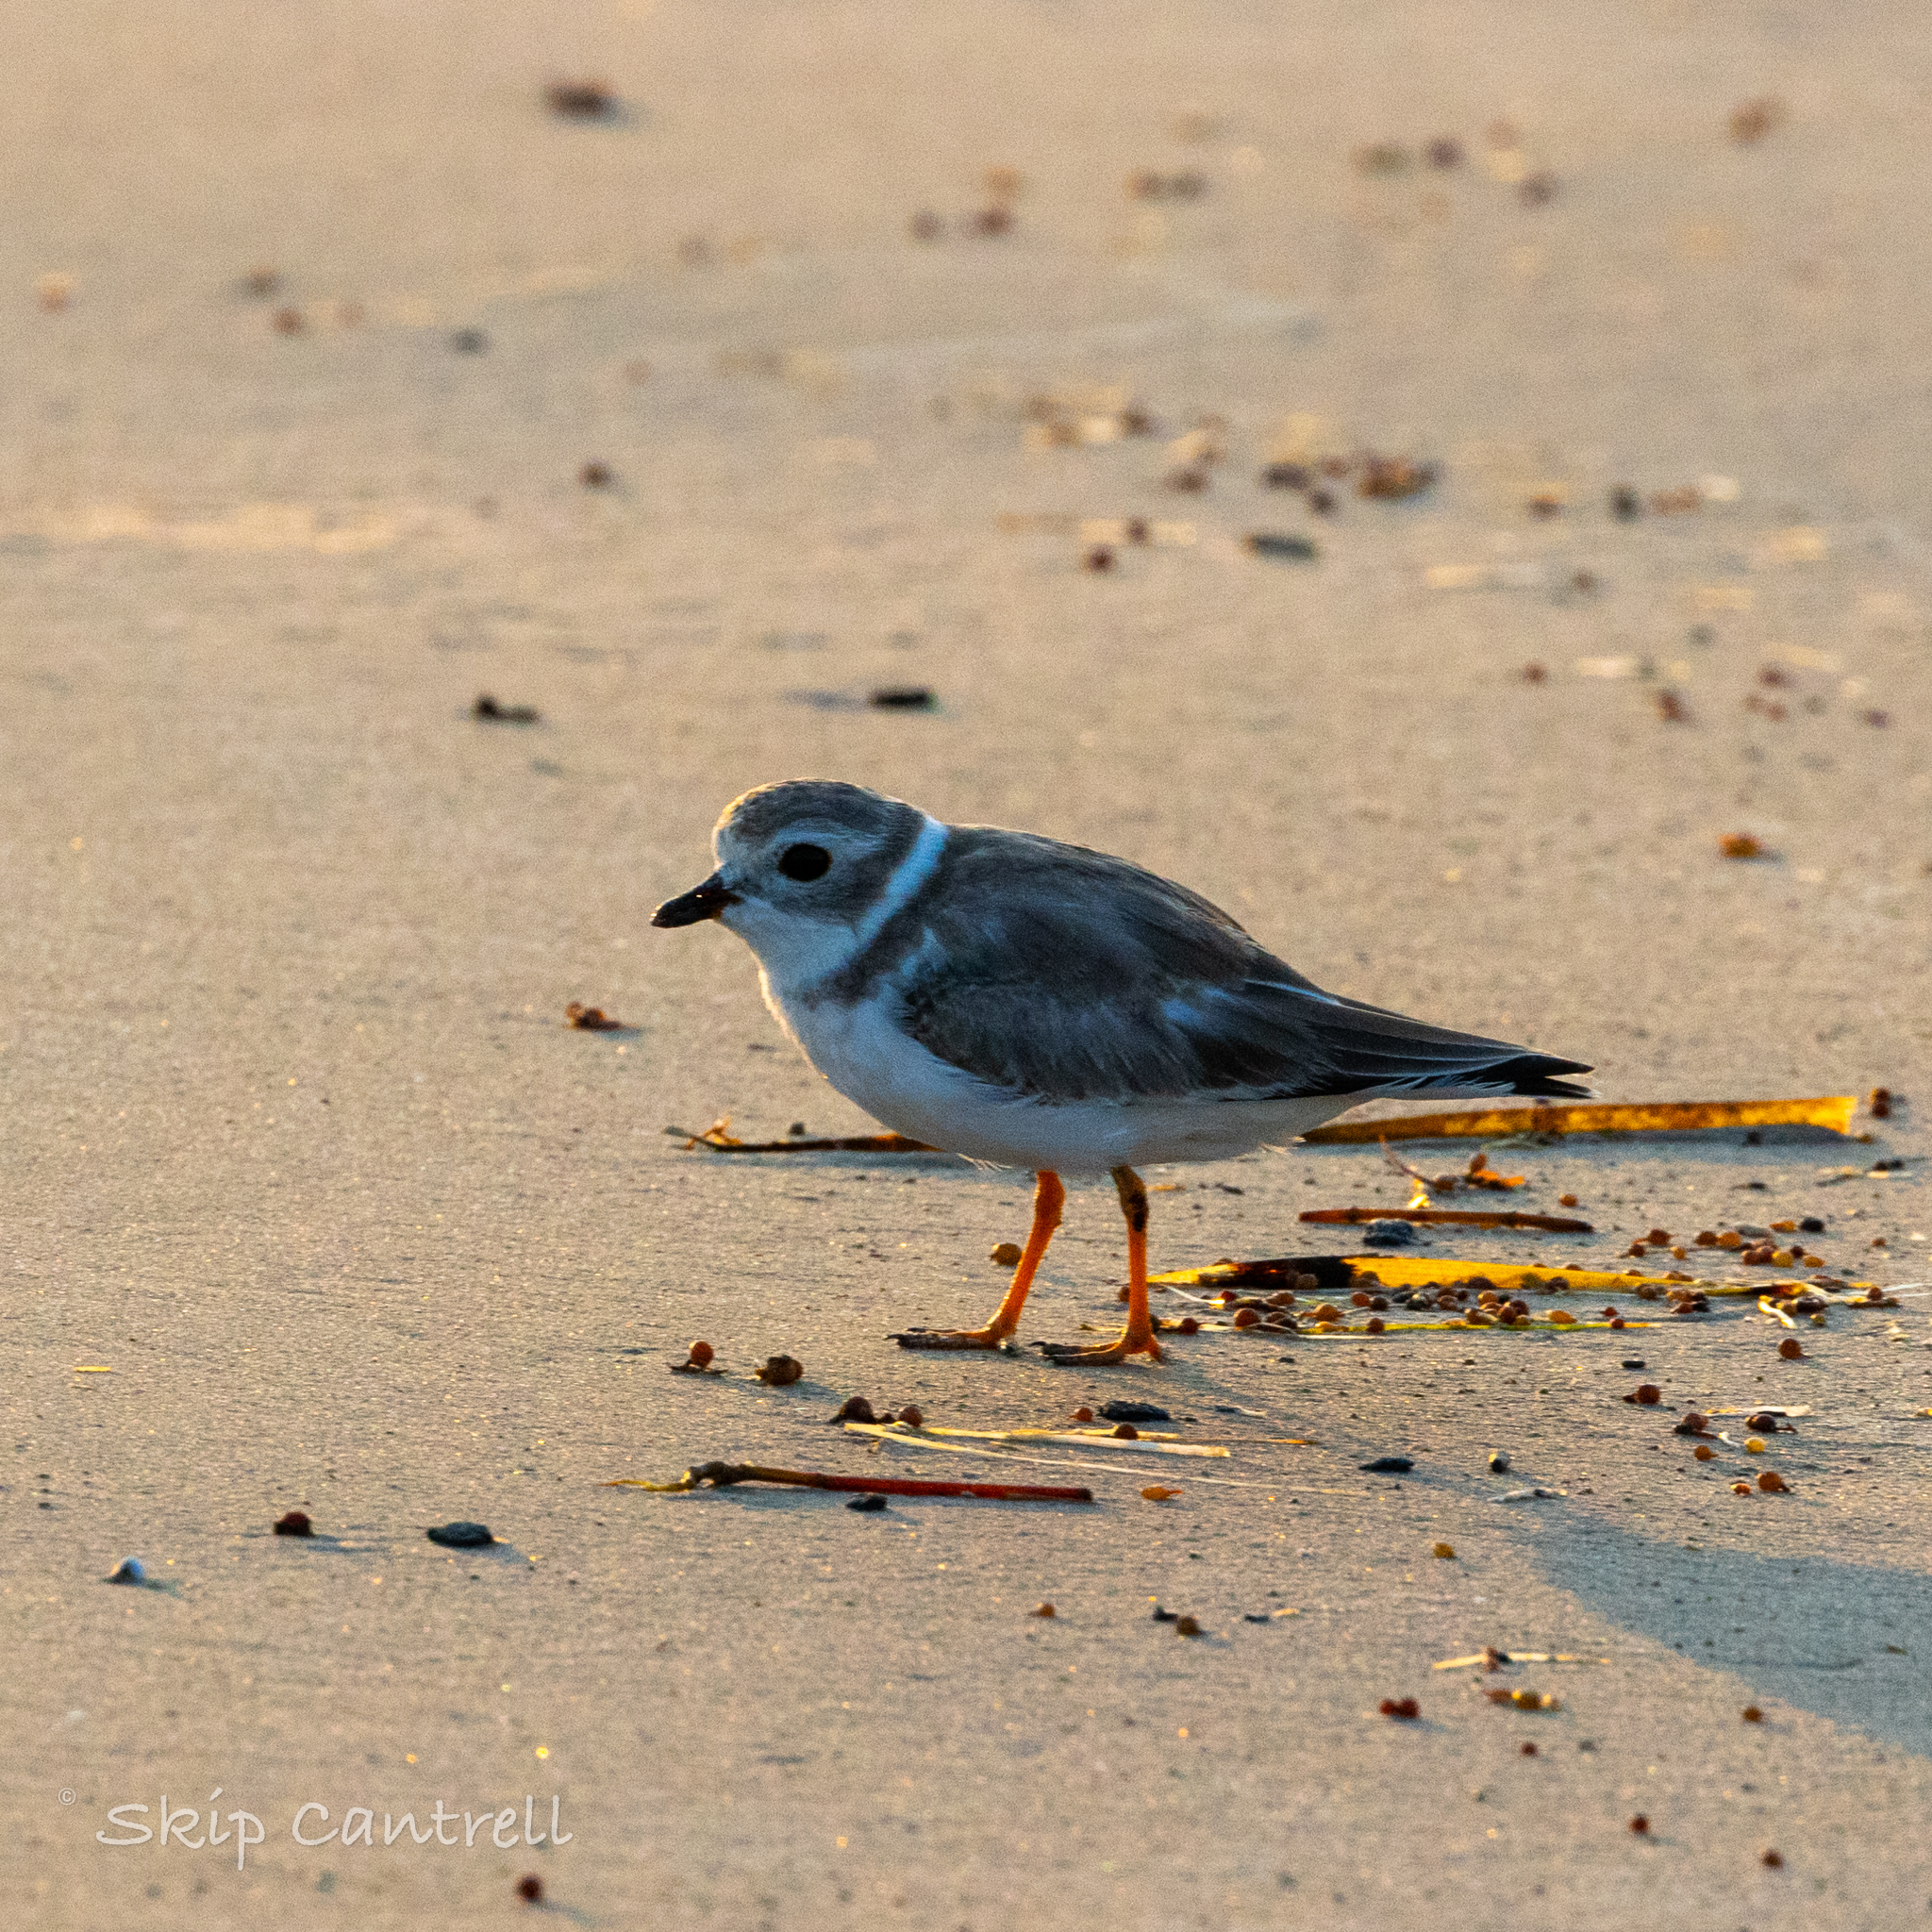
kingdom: Animalia
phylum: Chordata
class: Aves
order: Charadriiformes
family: Charadriidae
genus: Charadrius
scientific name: Charadrius melodus
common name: Piping plover
